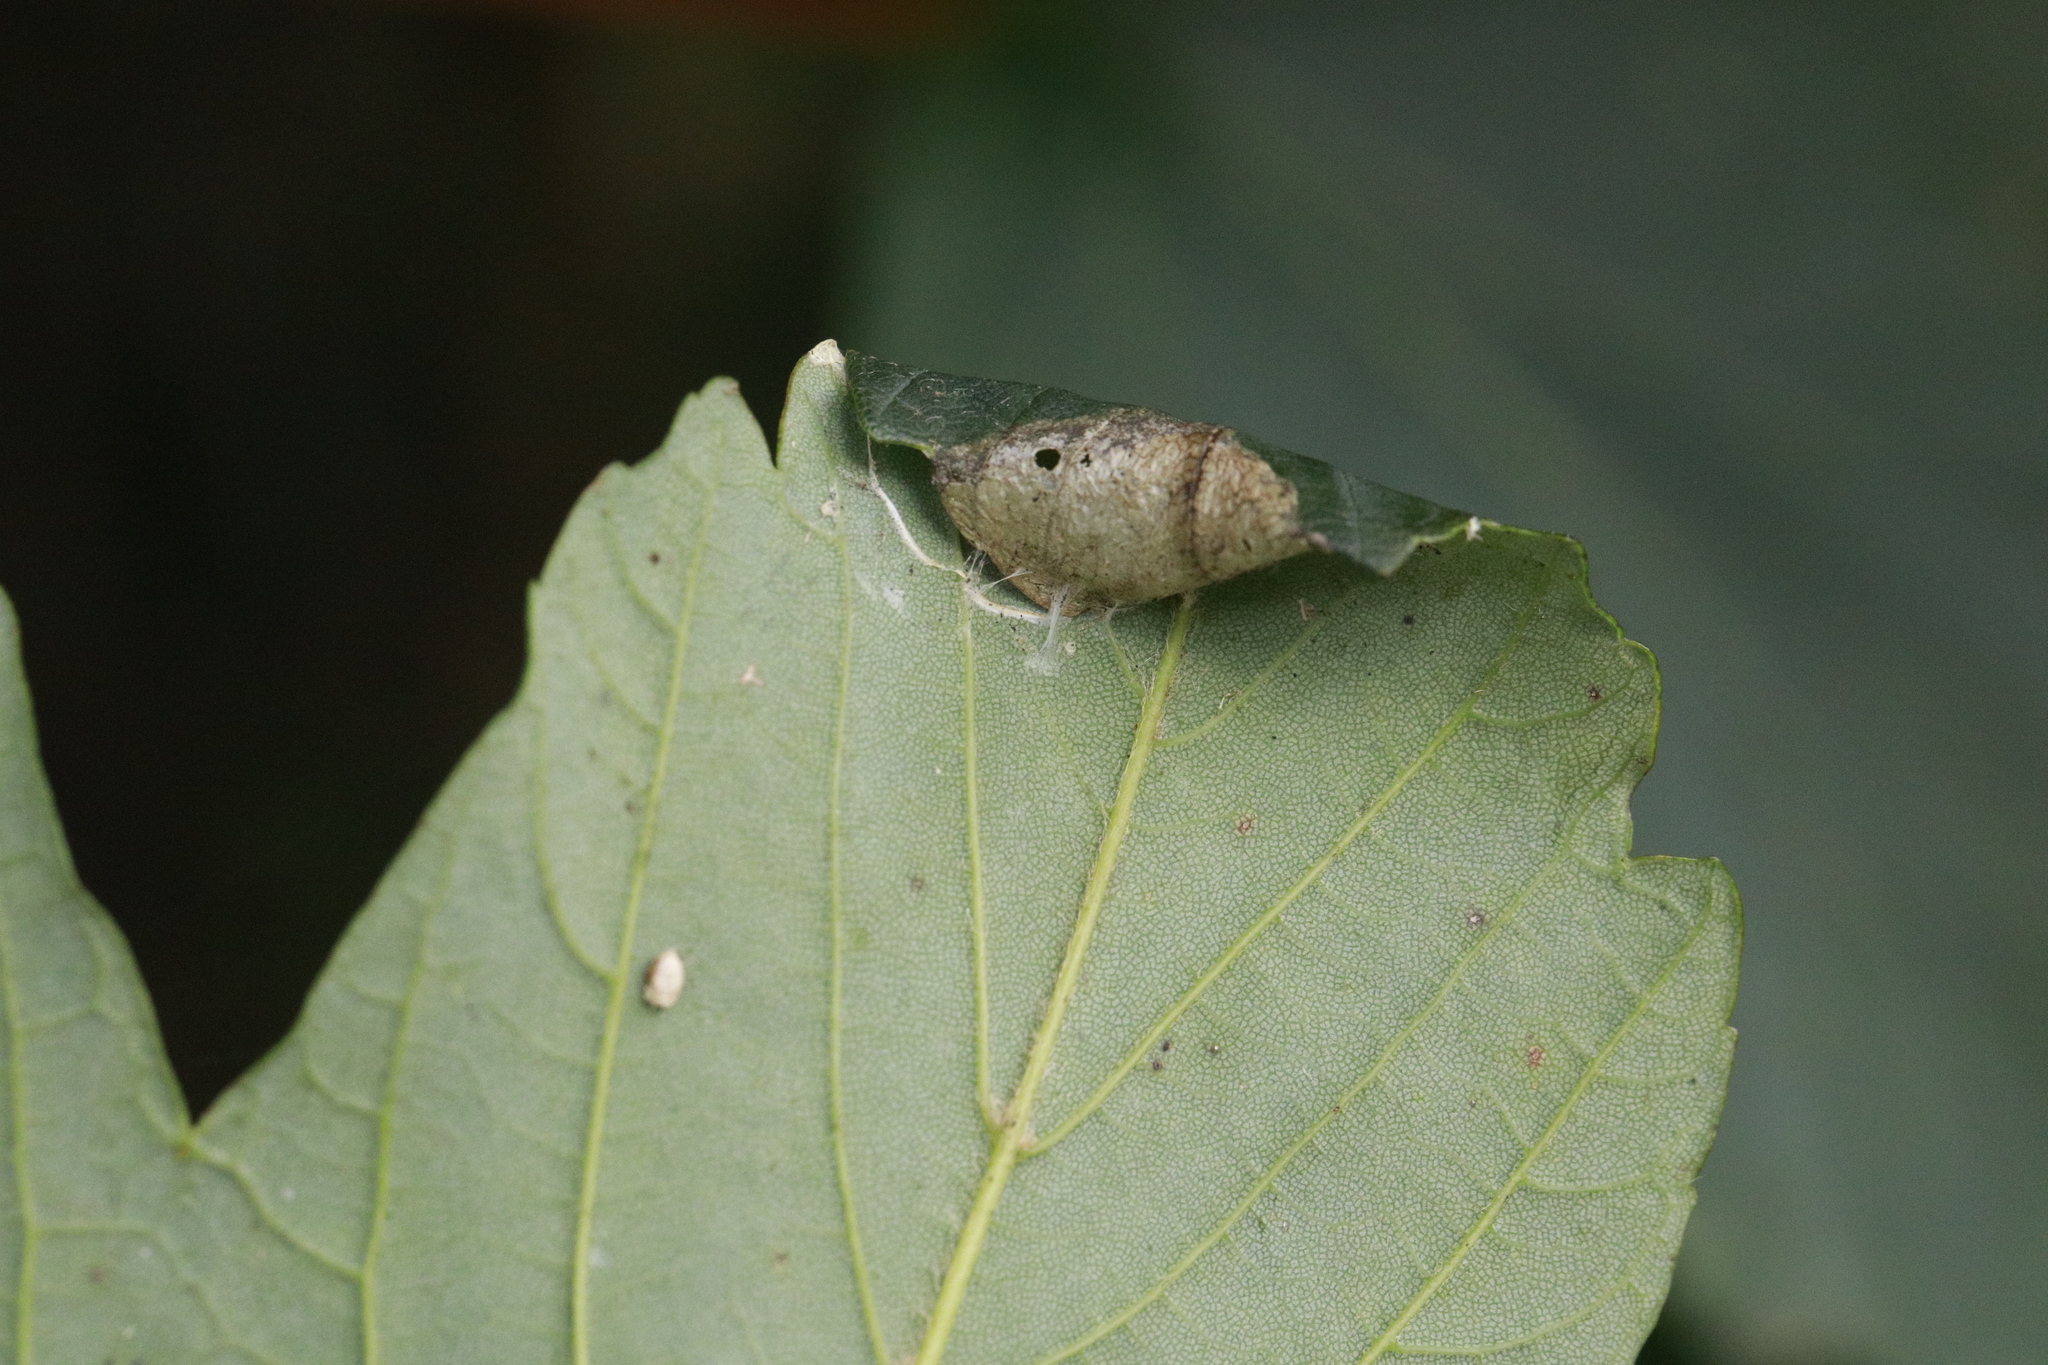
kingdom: Animalia
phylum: Arthropoda
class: Insecta
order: Lepidoptera
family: Gracillariidae
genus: Caloptilia
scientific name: Caloptilia rufipennella
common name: Small red slender
